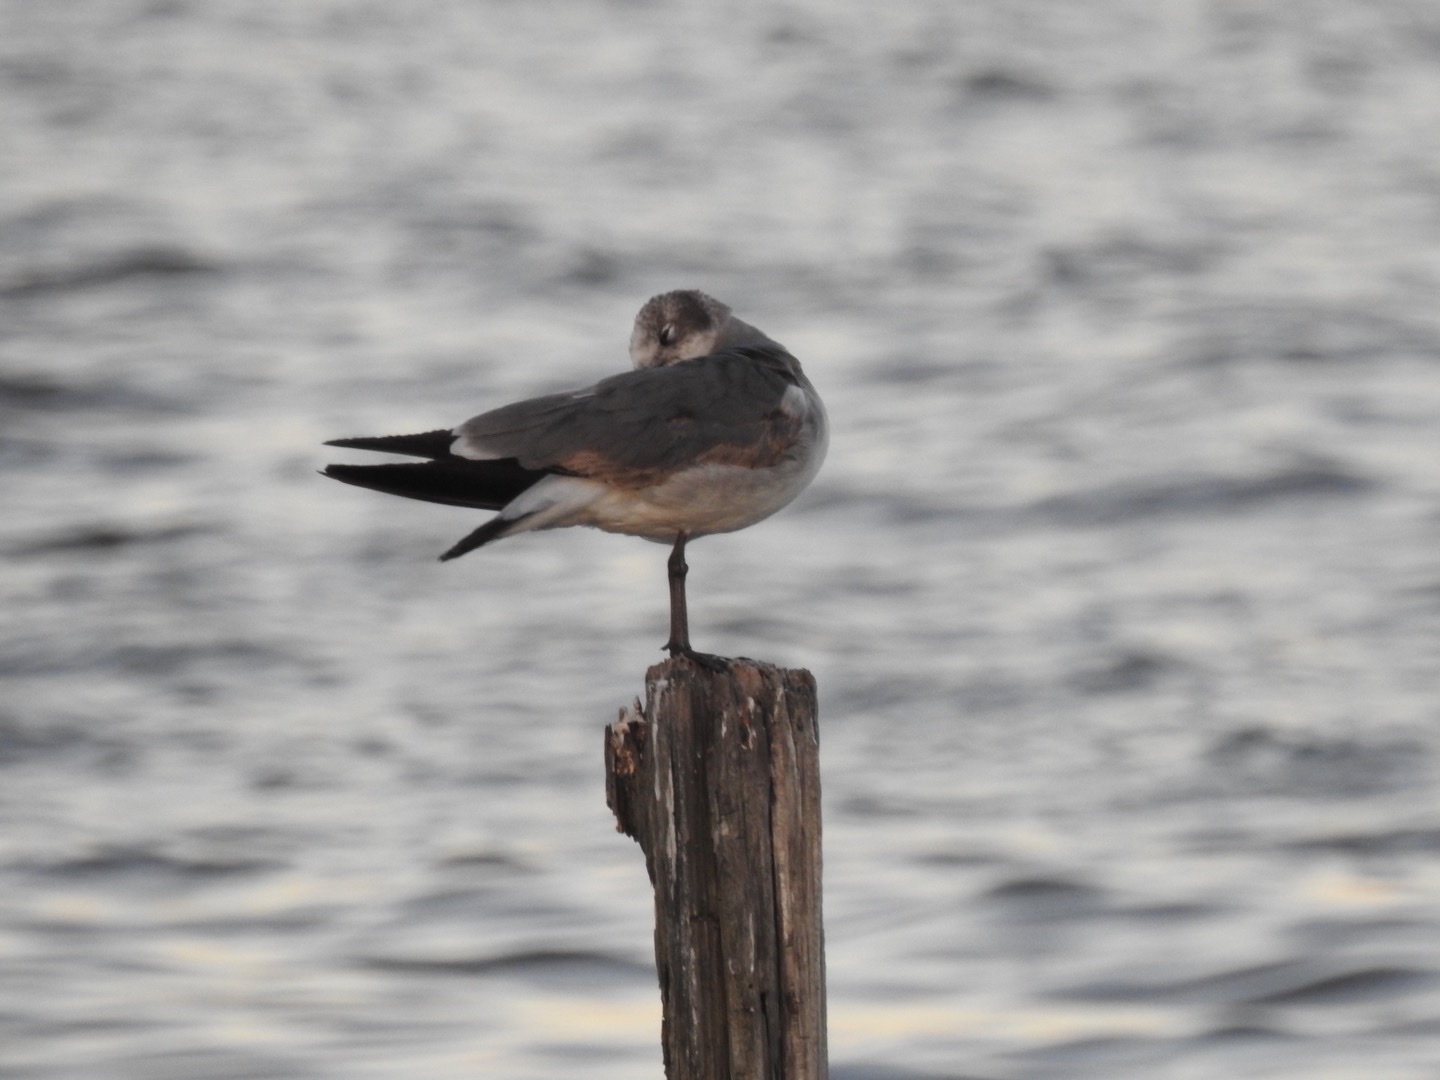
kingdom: Animalia
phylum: Chordata
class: Aves
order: Charadriiformes
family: Laridae
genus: Leucophaeus
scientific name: Leucophaeus atricilla
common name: Laughing gull
